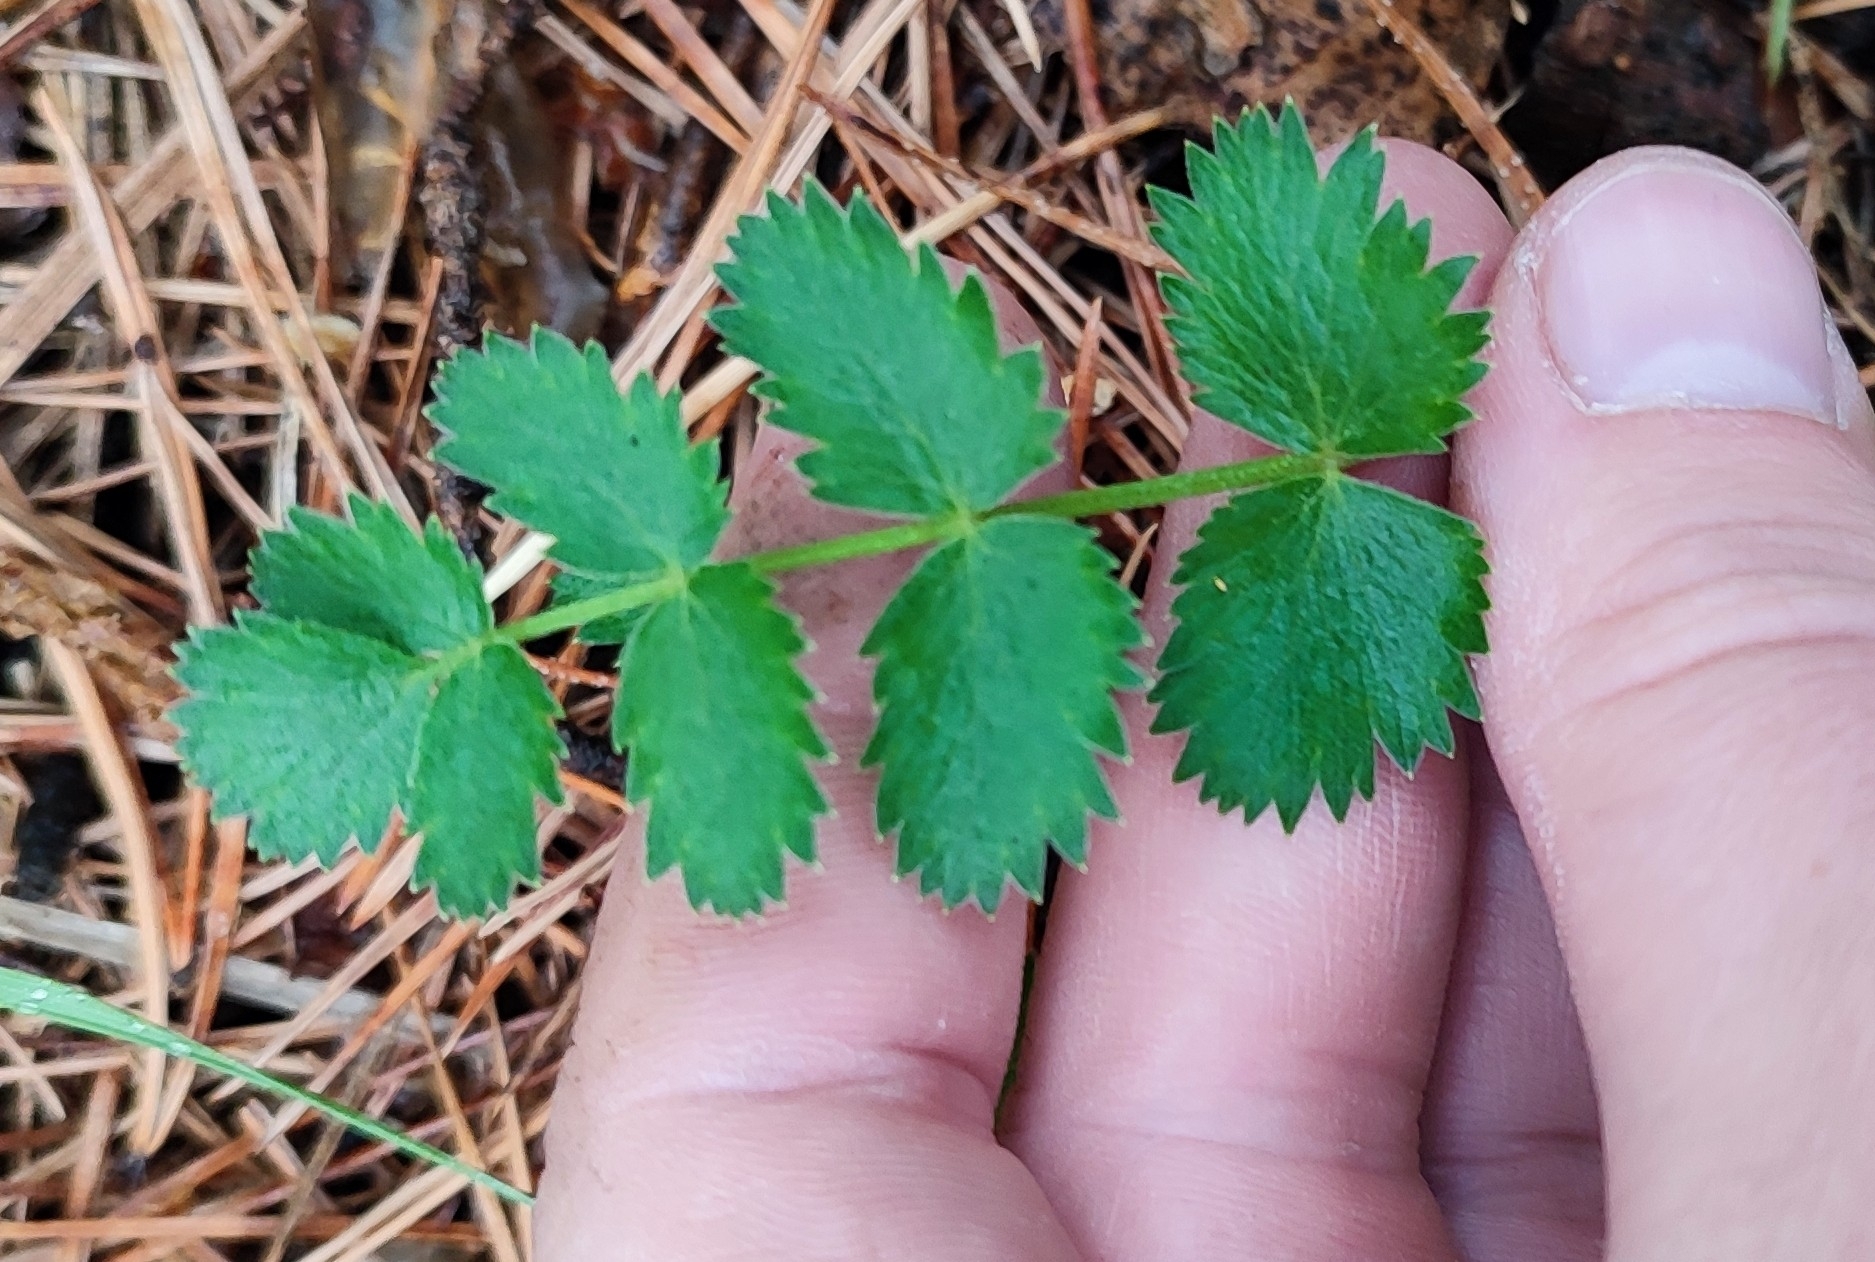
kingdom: Plantae
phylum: Tracheophyta
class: Magnoliopsida
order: Apiales
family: Apiaceae
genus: Pimpinella
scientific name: Pimpinella saxifraga
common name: Burnet-saxifrage
